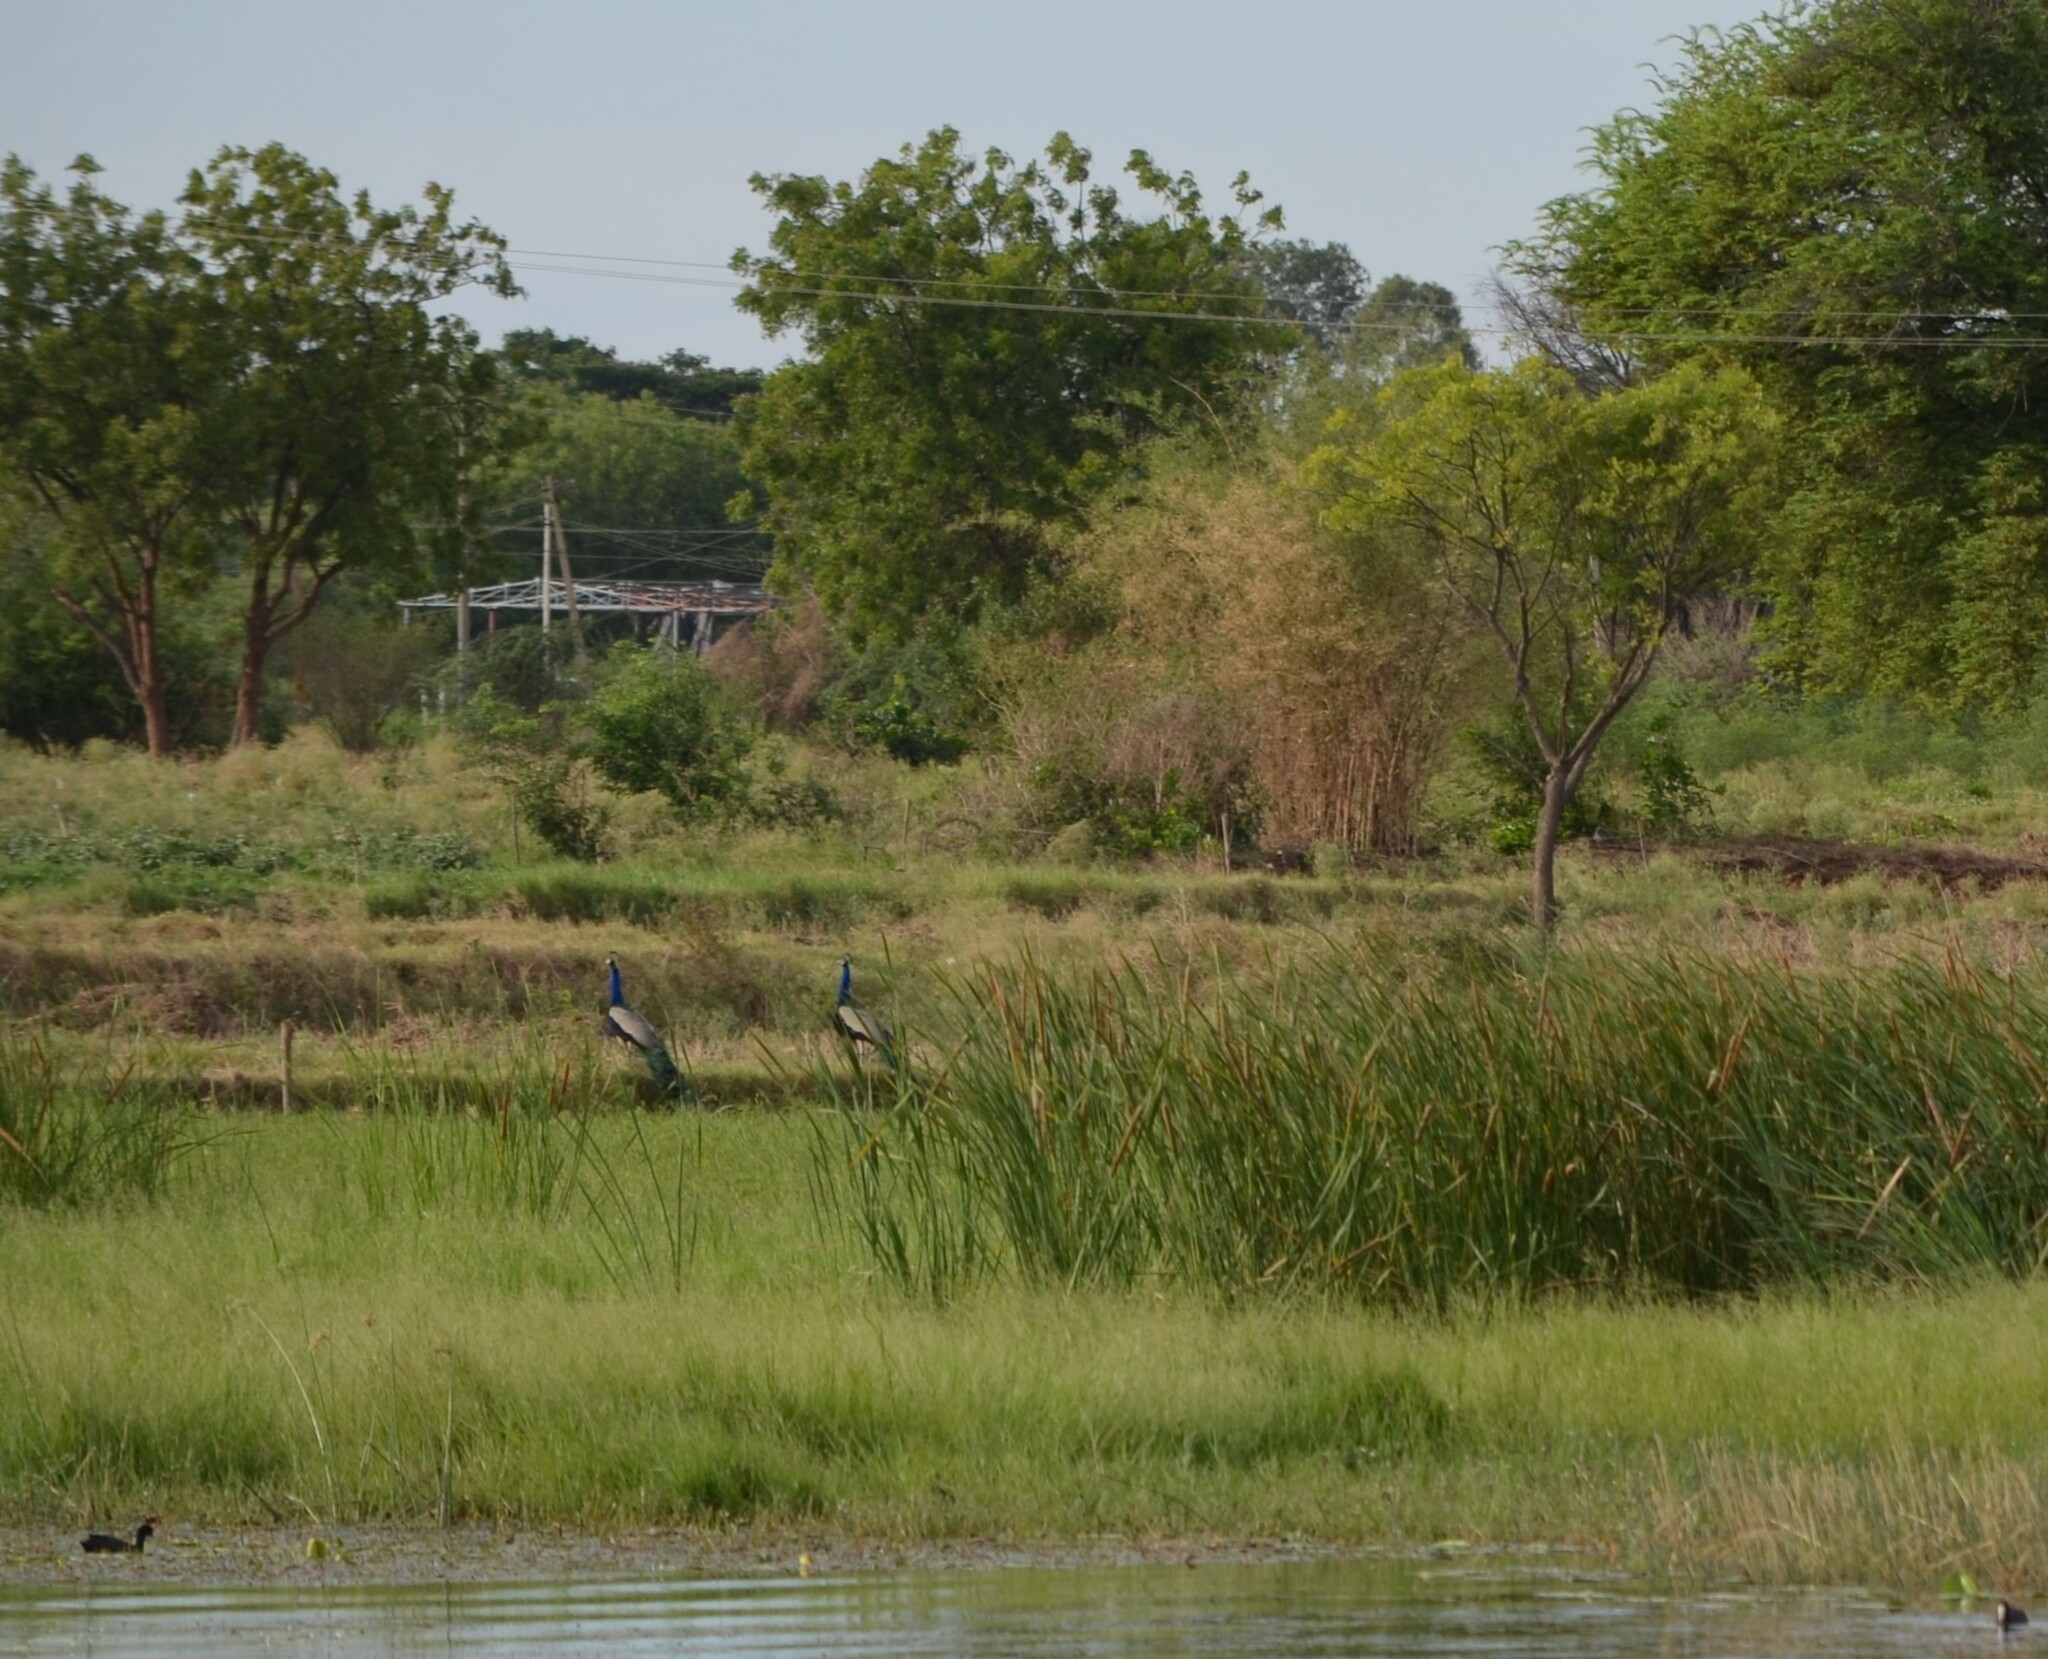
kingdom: Animalia
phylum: Chordata
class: Aves
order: Galliformes
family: Phasianidae
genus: Pavo
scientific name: Pavo cristatus
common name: Indian peafowl
